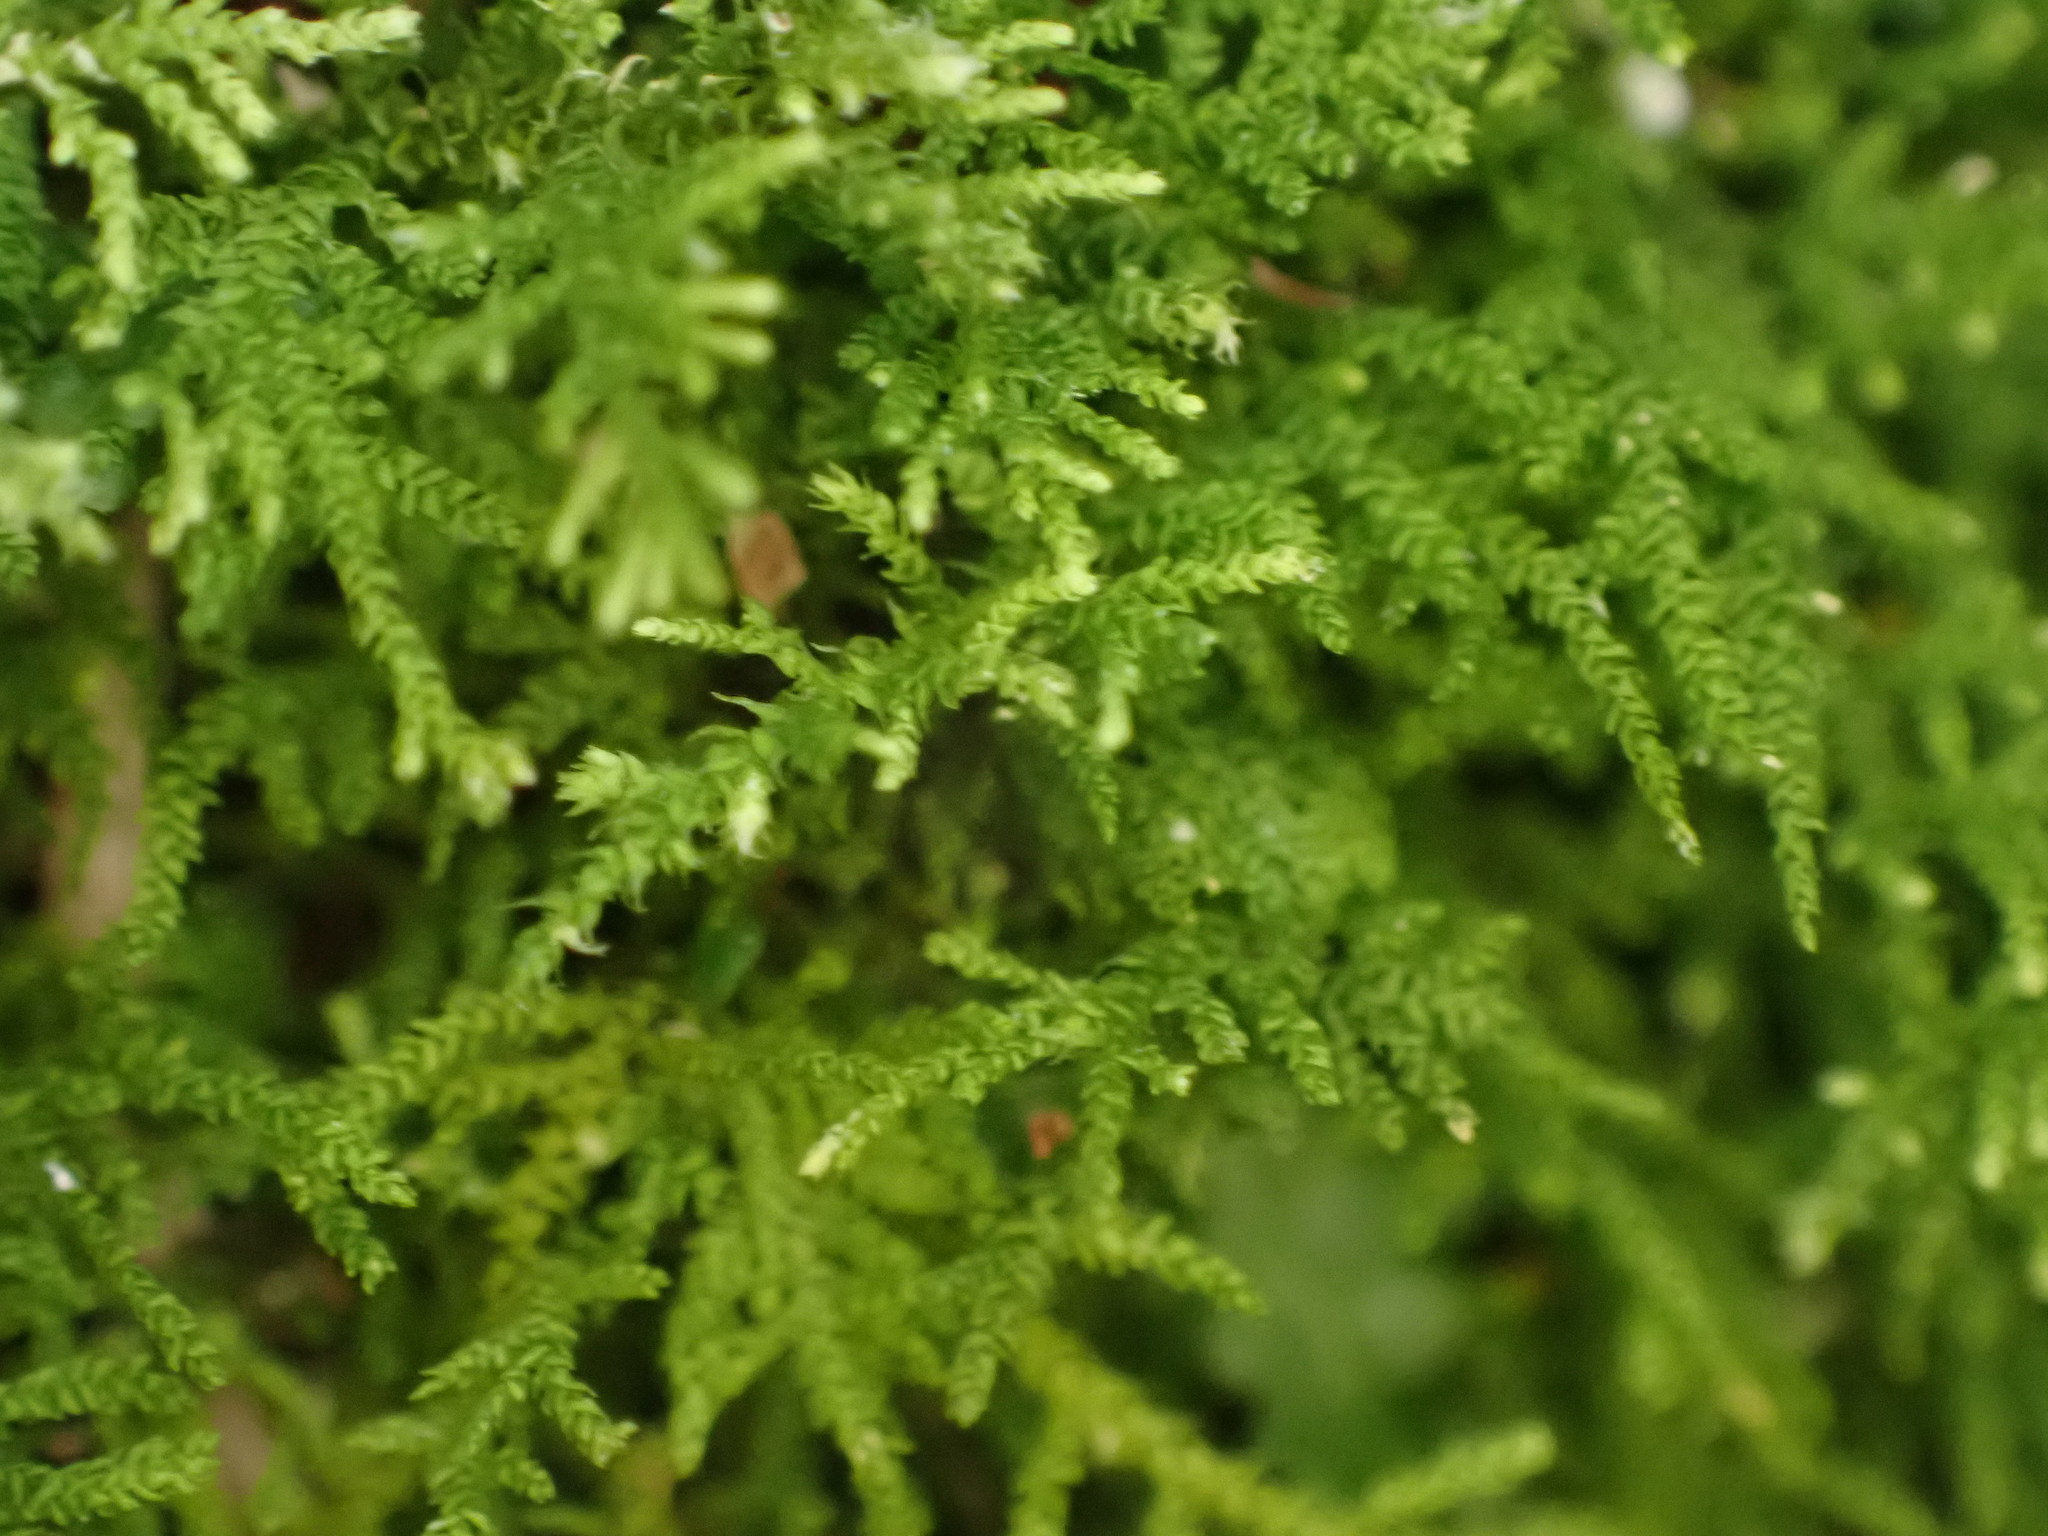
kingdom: Plantae
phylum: Bryophyta
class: Bryopsida
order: Hypnales
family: Thuidiaceae
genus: Thuidiopsis
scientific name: Thuidiopsis sparsa
